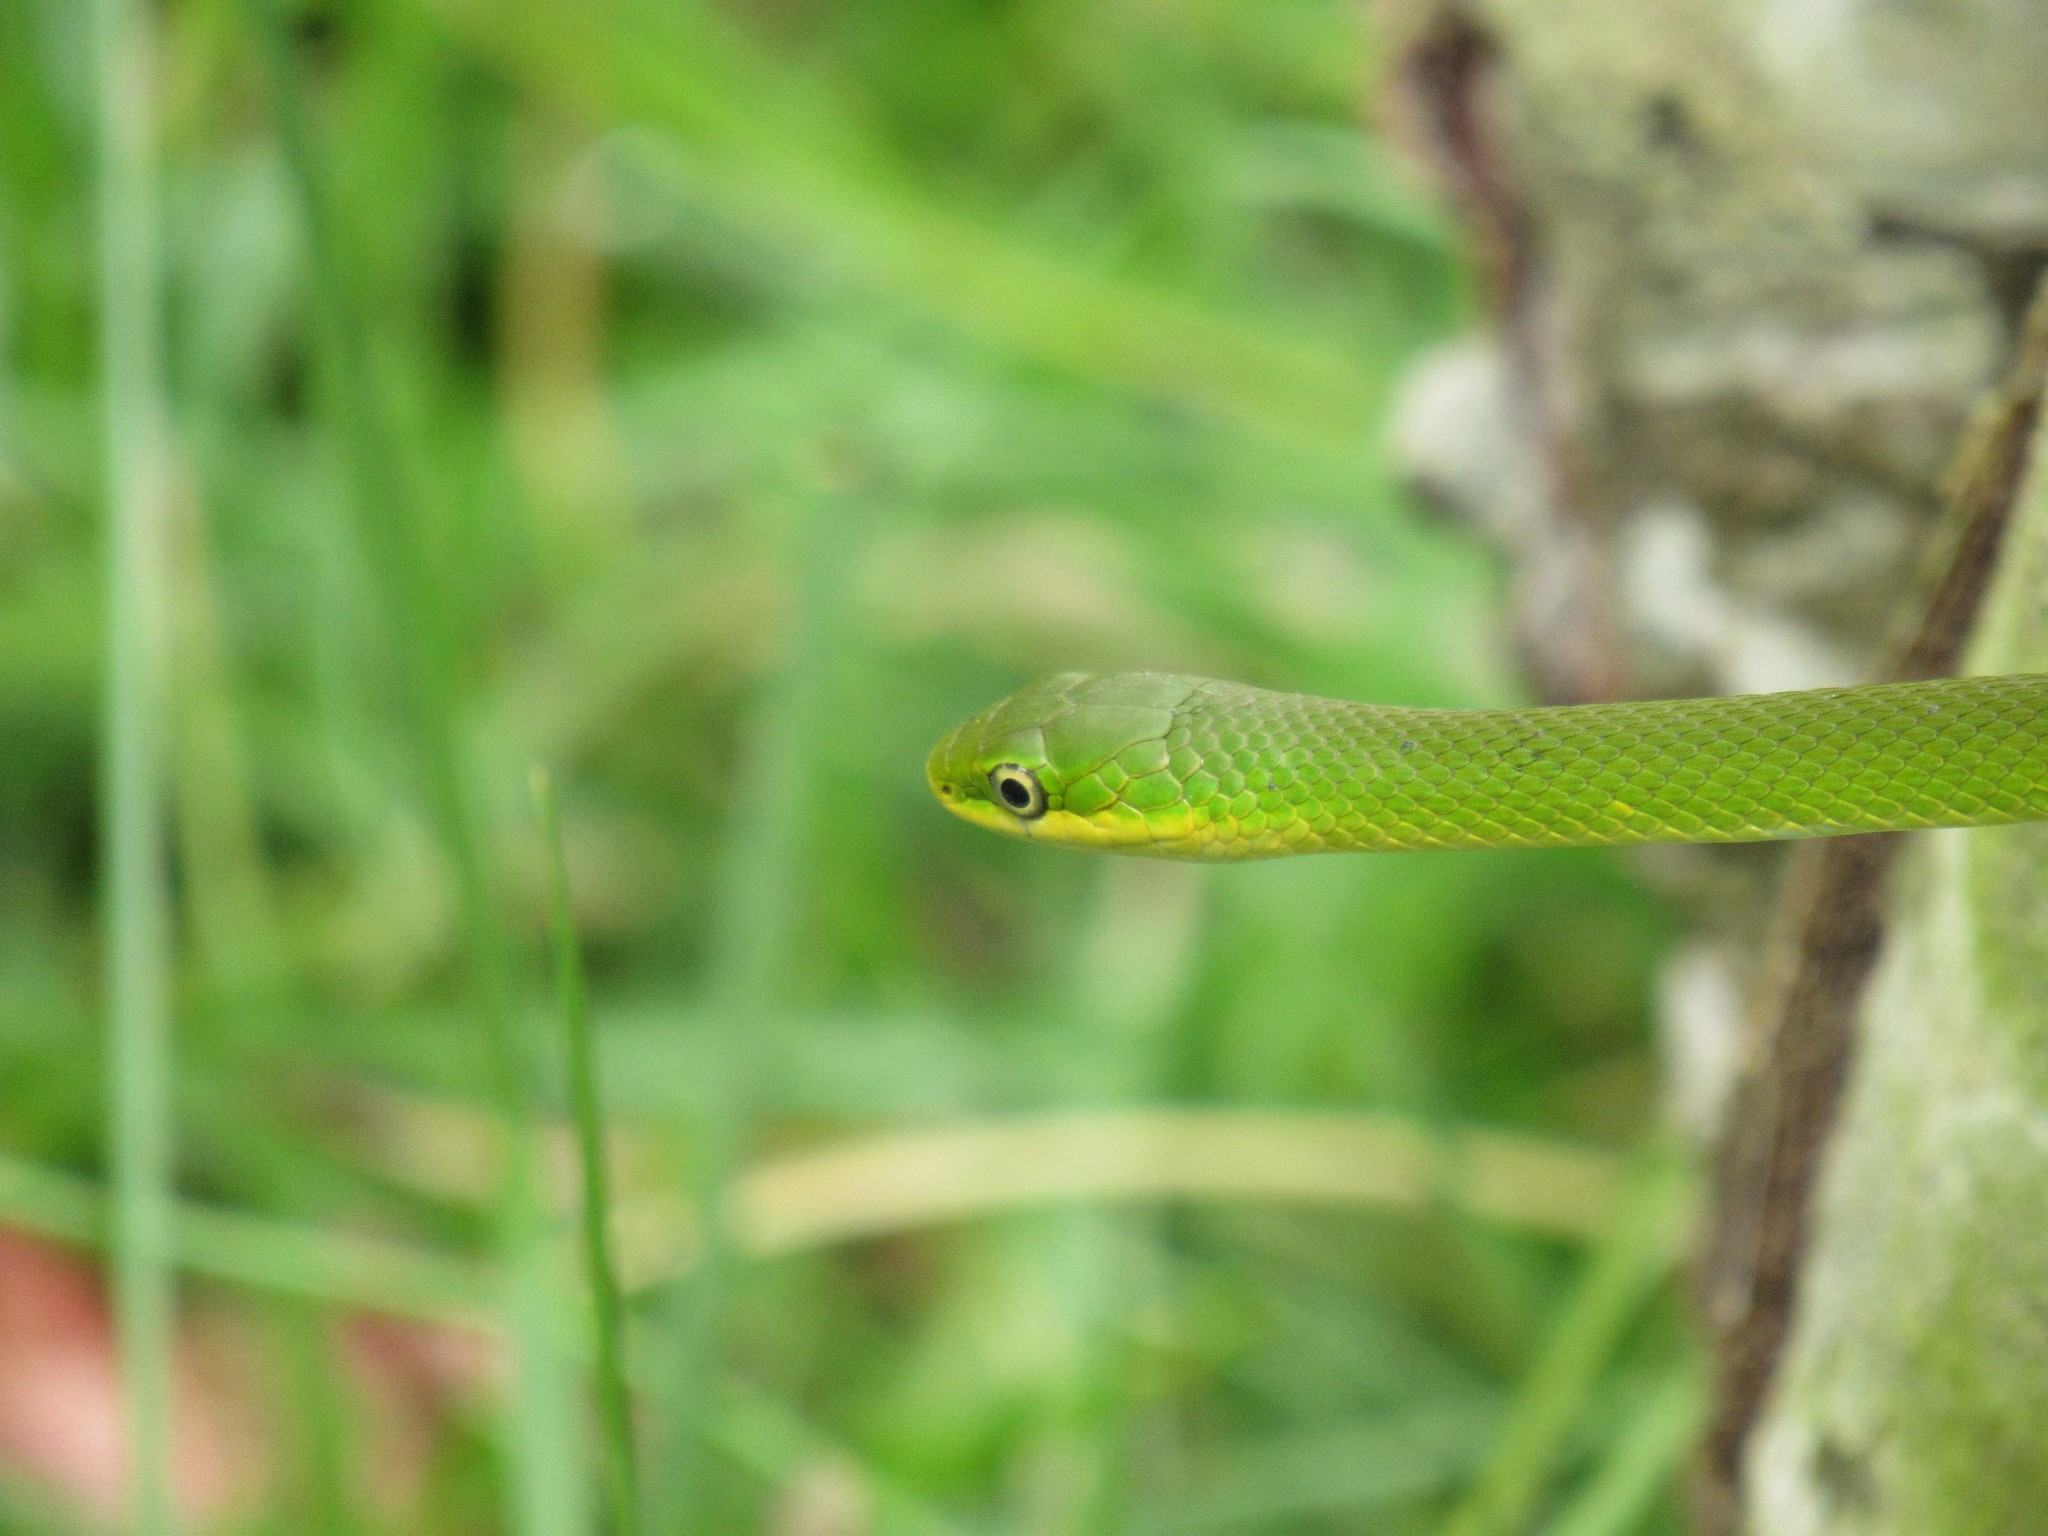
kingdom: Animalia
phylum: Chordata
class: Squamata
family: Colubridae
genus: Opheodrys
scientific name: Opheodrys aestivus
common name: Rough greensnake
